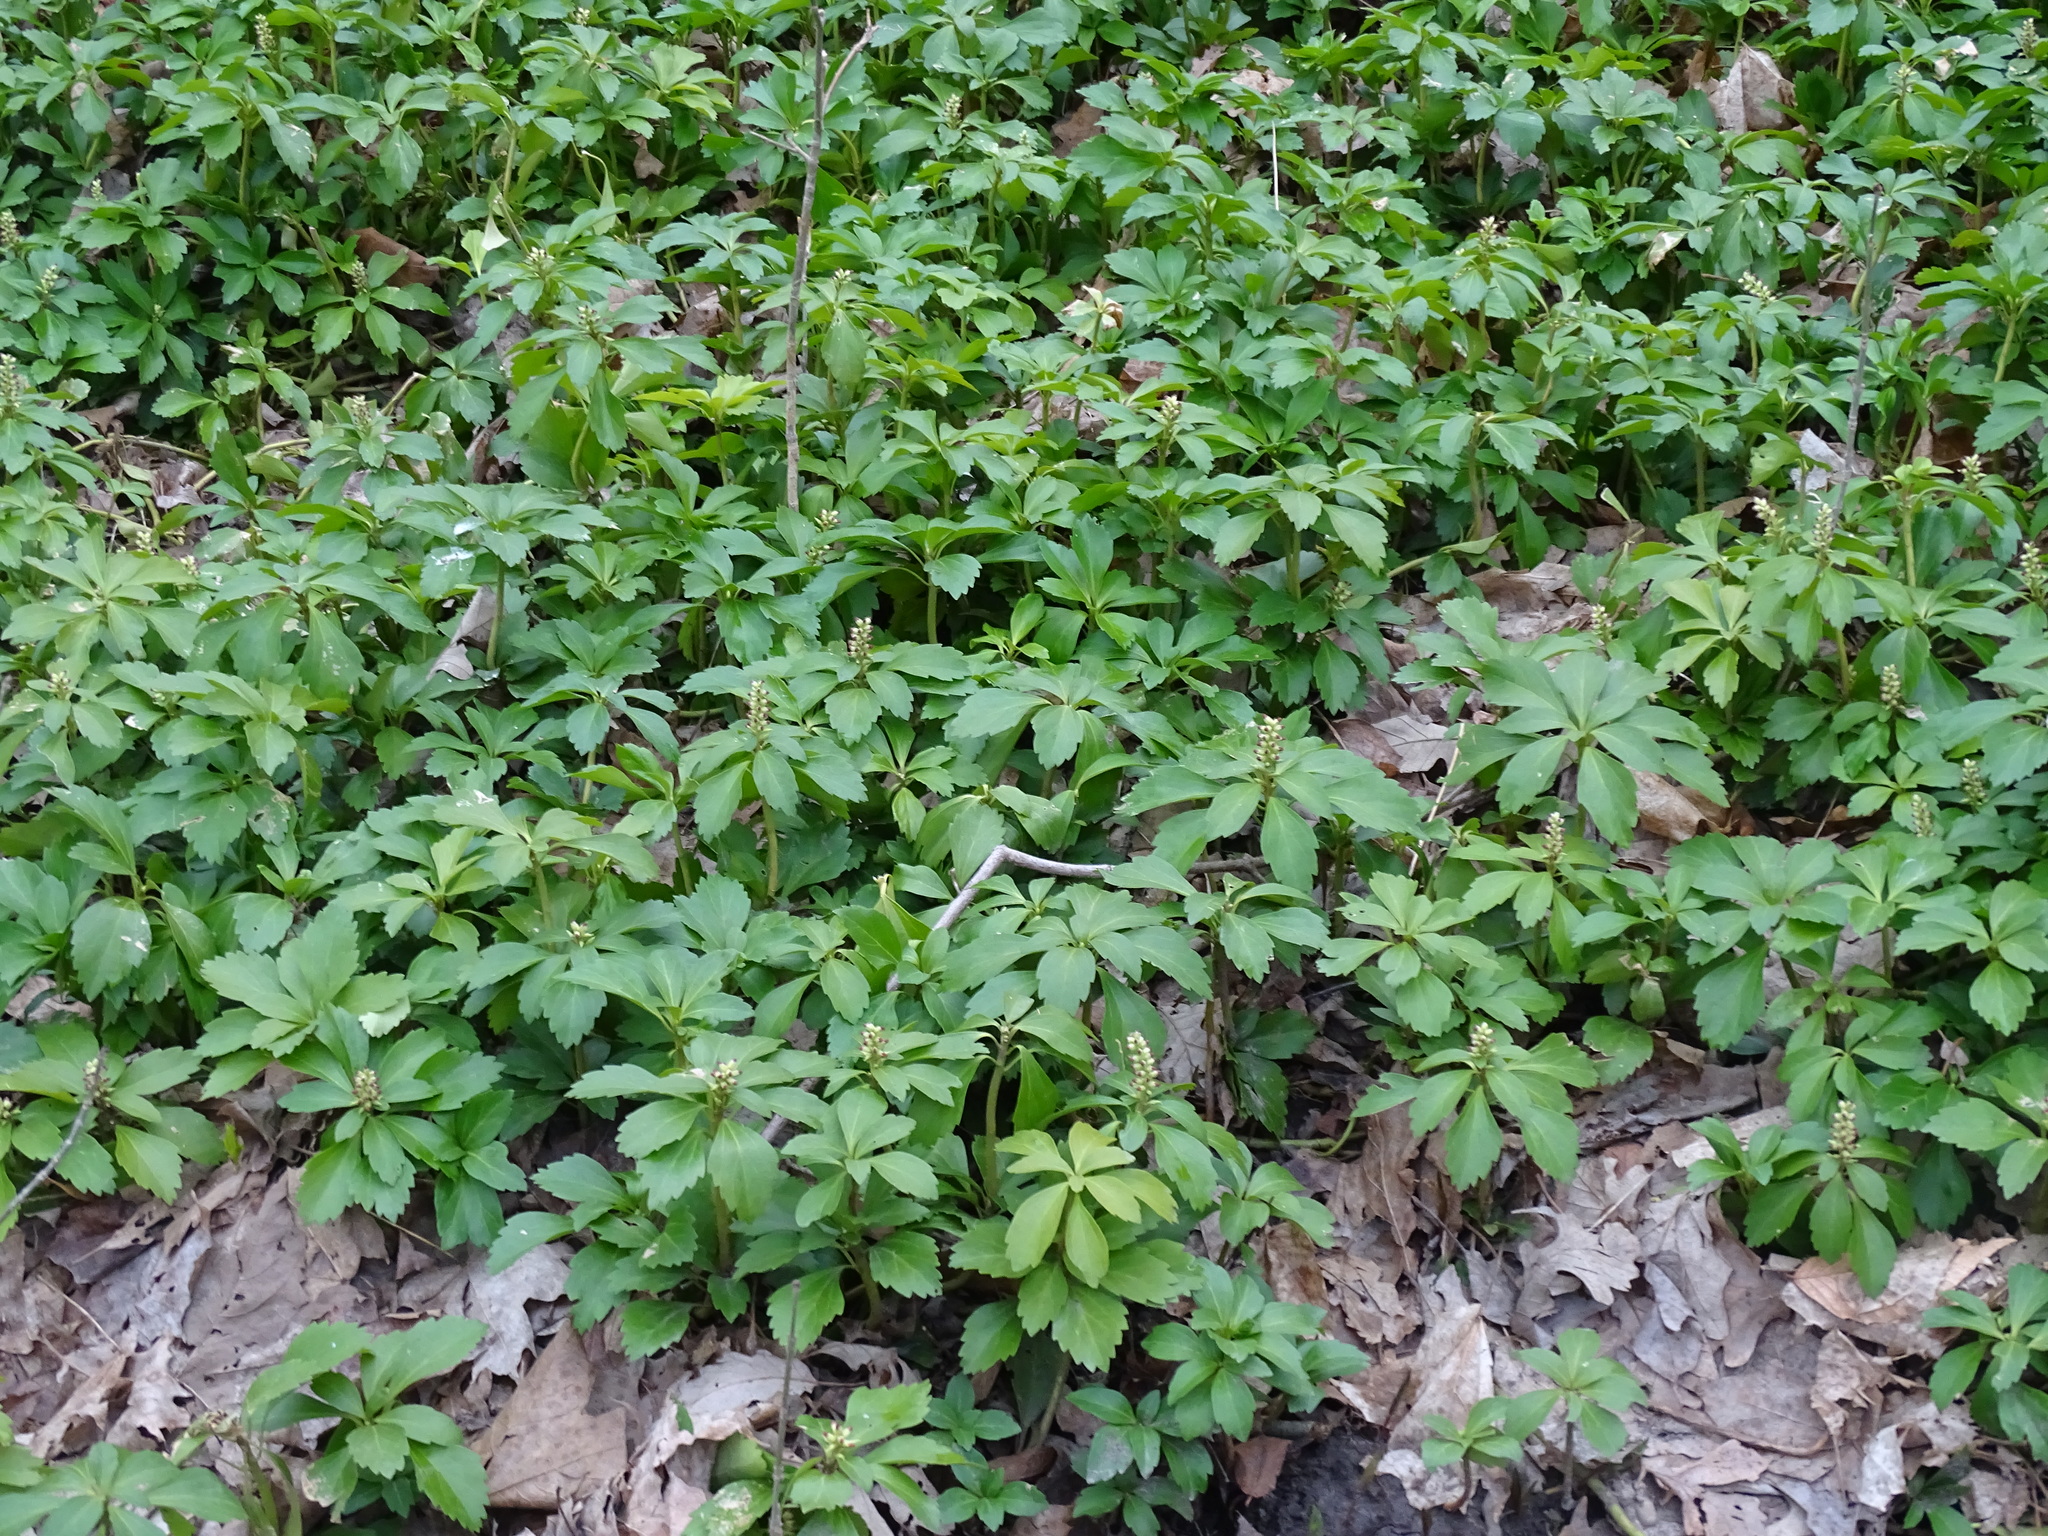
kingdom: Plantae
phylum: Tracheophyta
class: Magnoliopsida
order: Buxales
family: Buxaceae
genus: Pachysandra
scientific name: Pachysandra terminalis
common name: Japanese pachysandra
